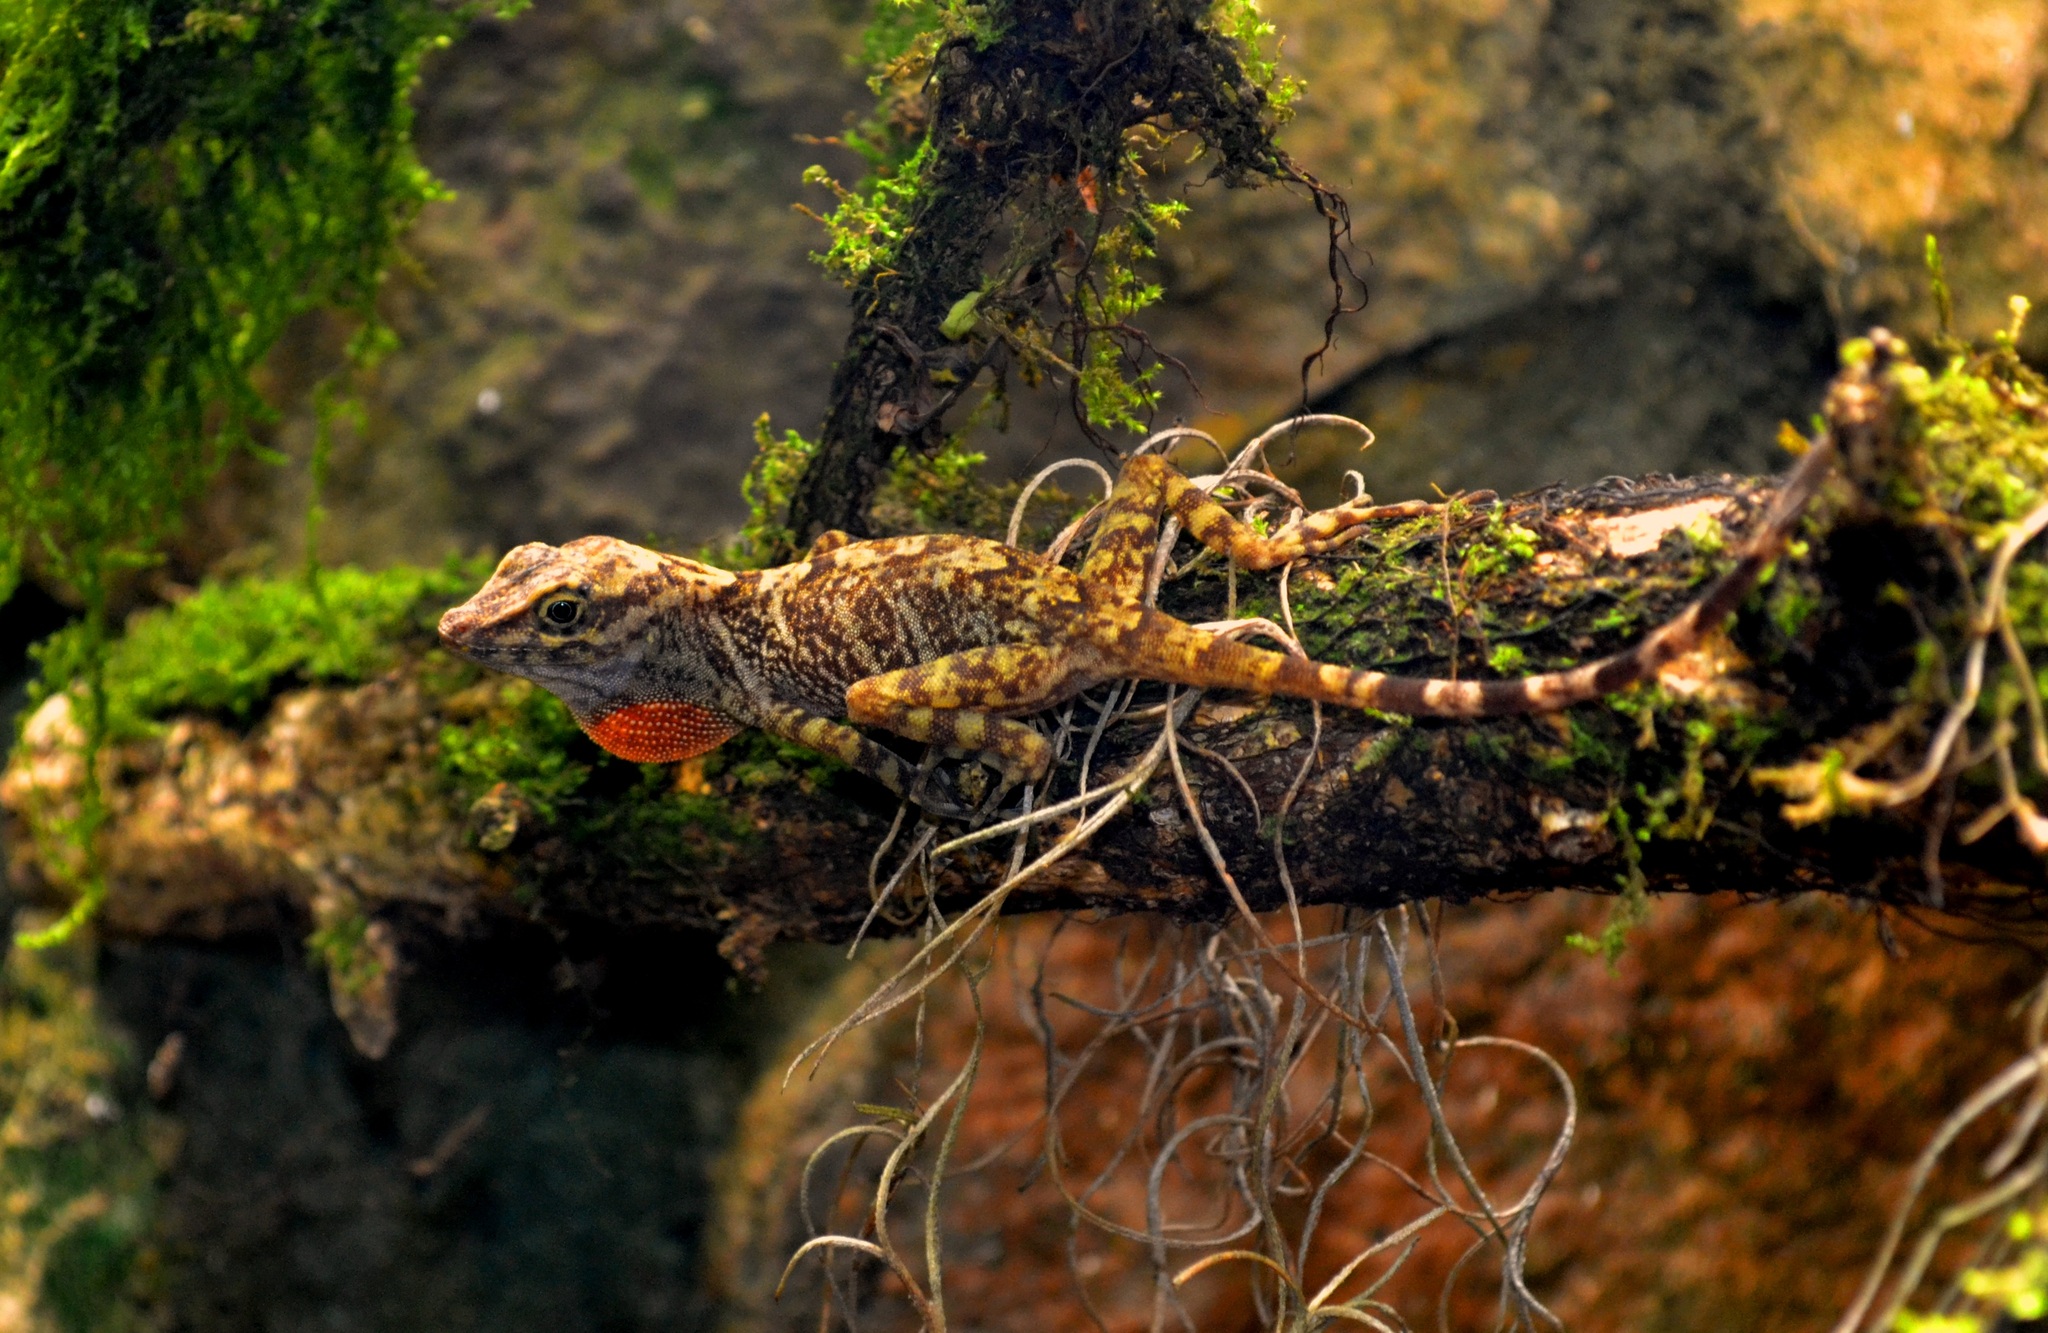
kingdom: Animalia
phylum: Chordata
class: Squamata
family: Dactyloidae
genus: Anolis
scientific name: Anolis alvarezdeltoroi
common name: Alvarez del toro’s anole
